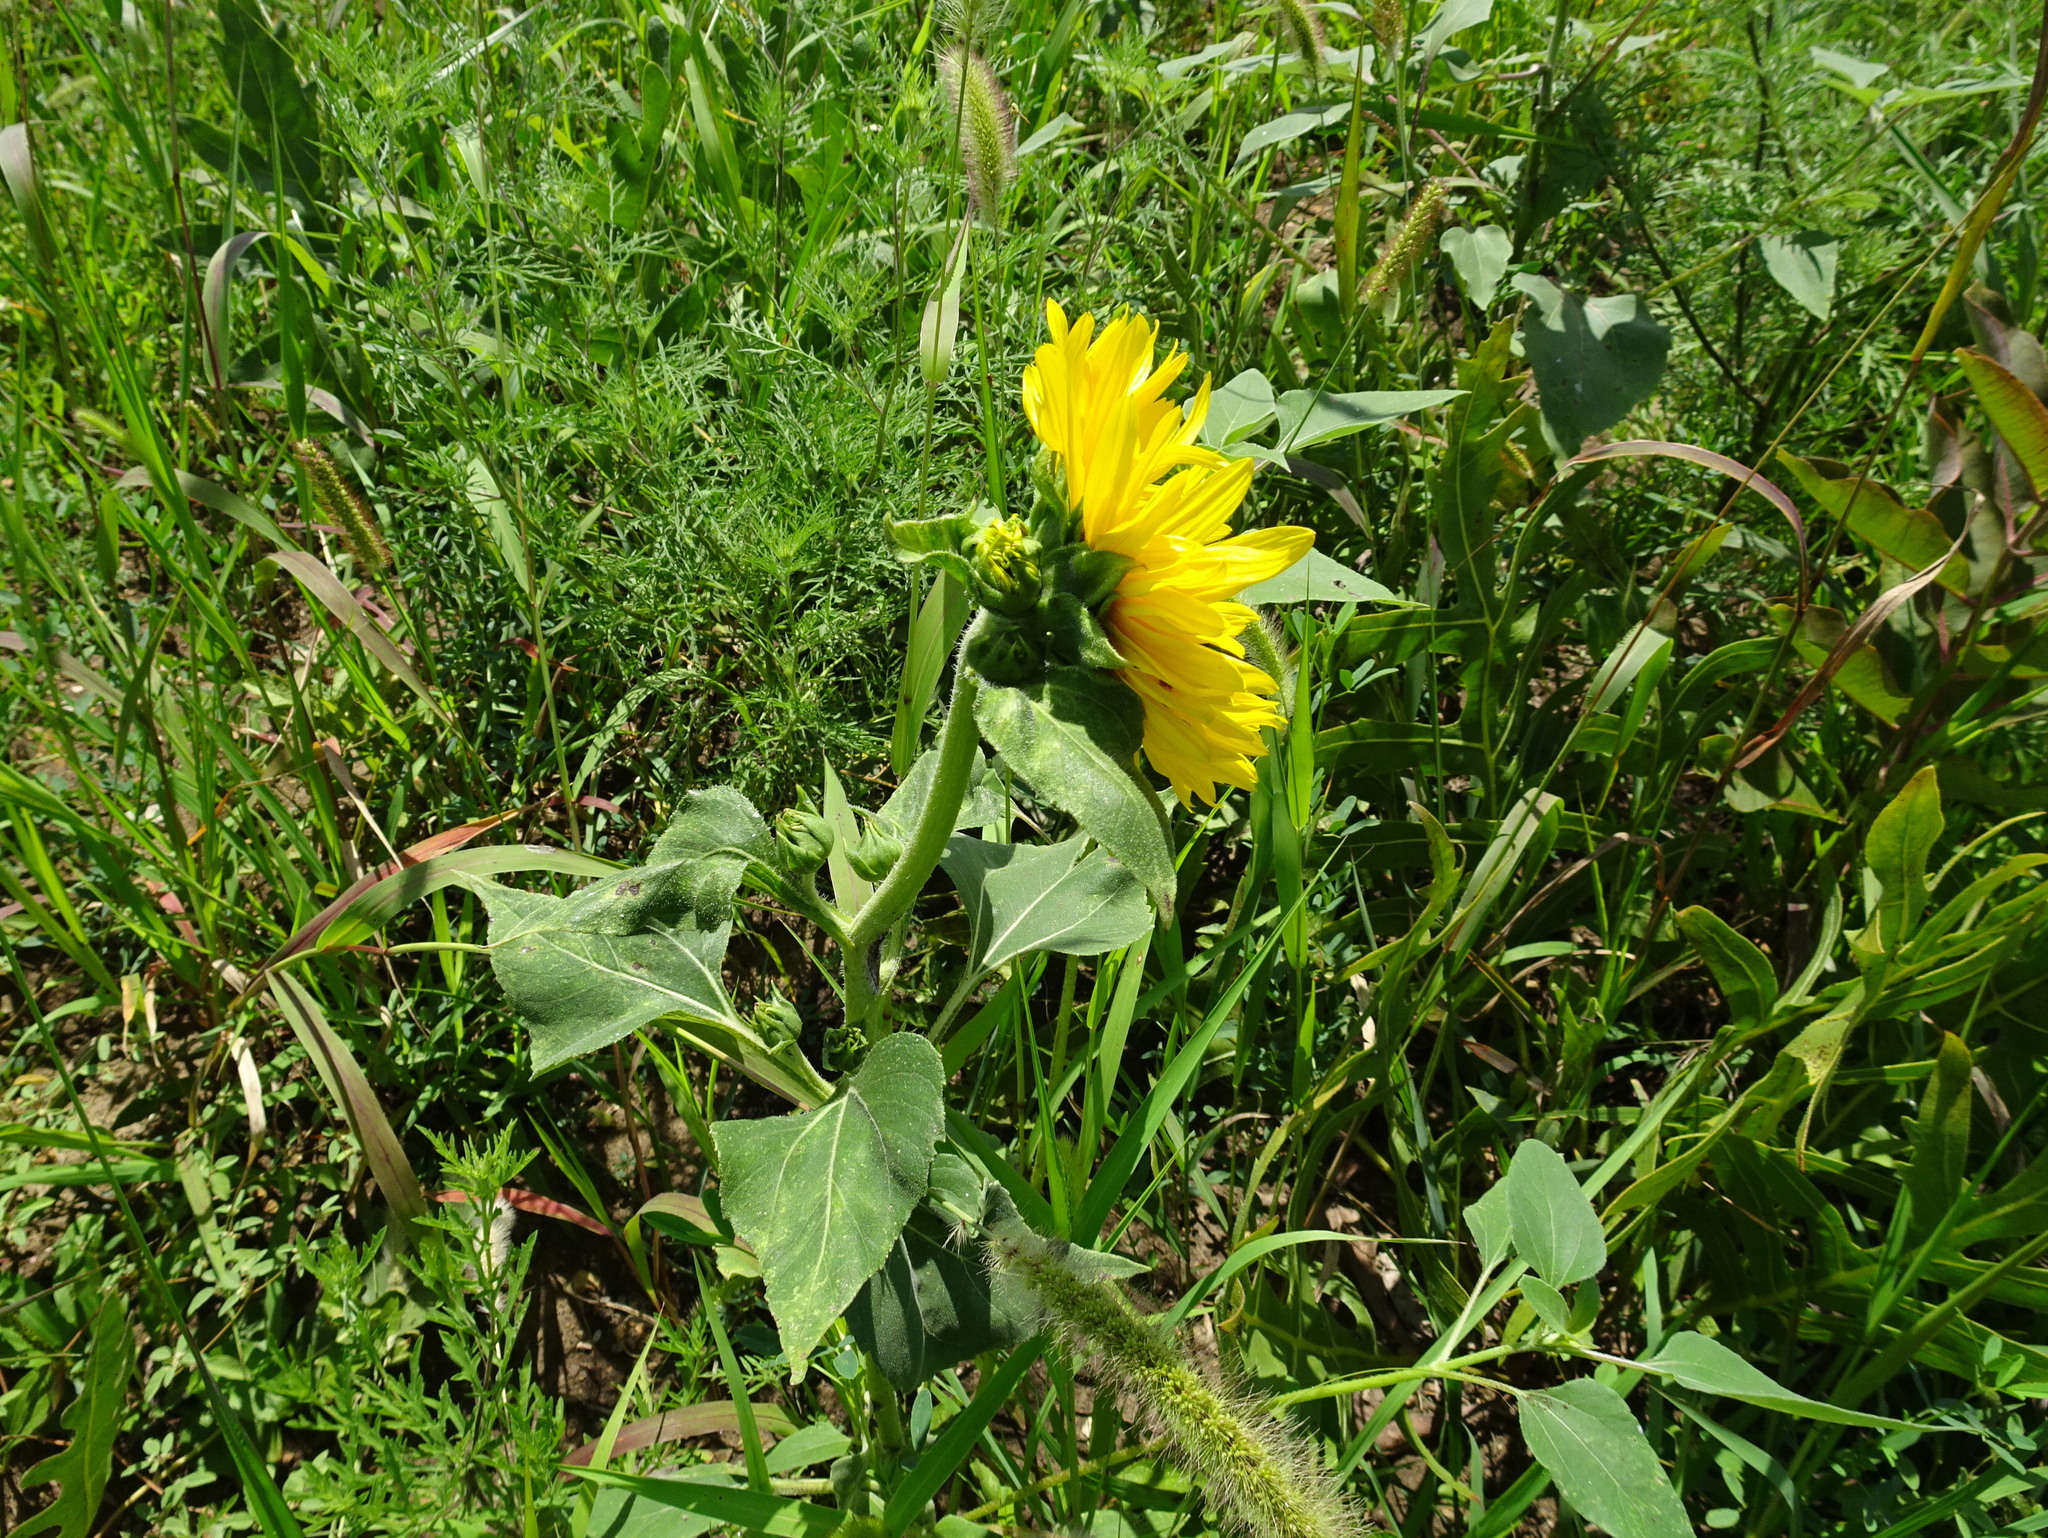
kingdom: Plantae
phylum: Tracheophyta
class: Magnoliopsida
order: Asterales
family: Asteraceae
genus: Helianthus
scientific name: Helianthus annuus
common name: Sunflower
